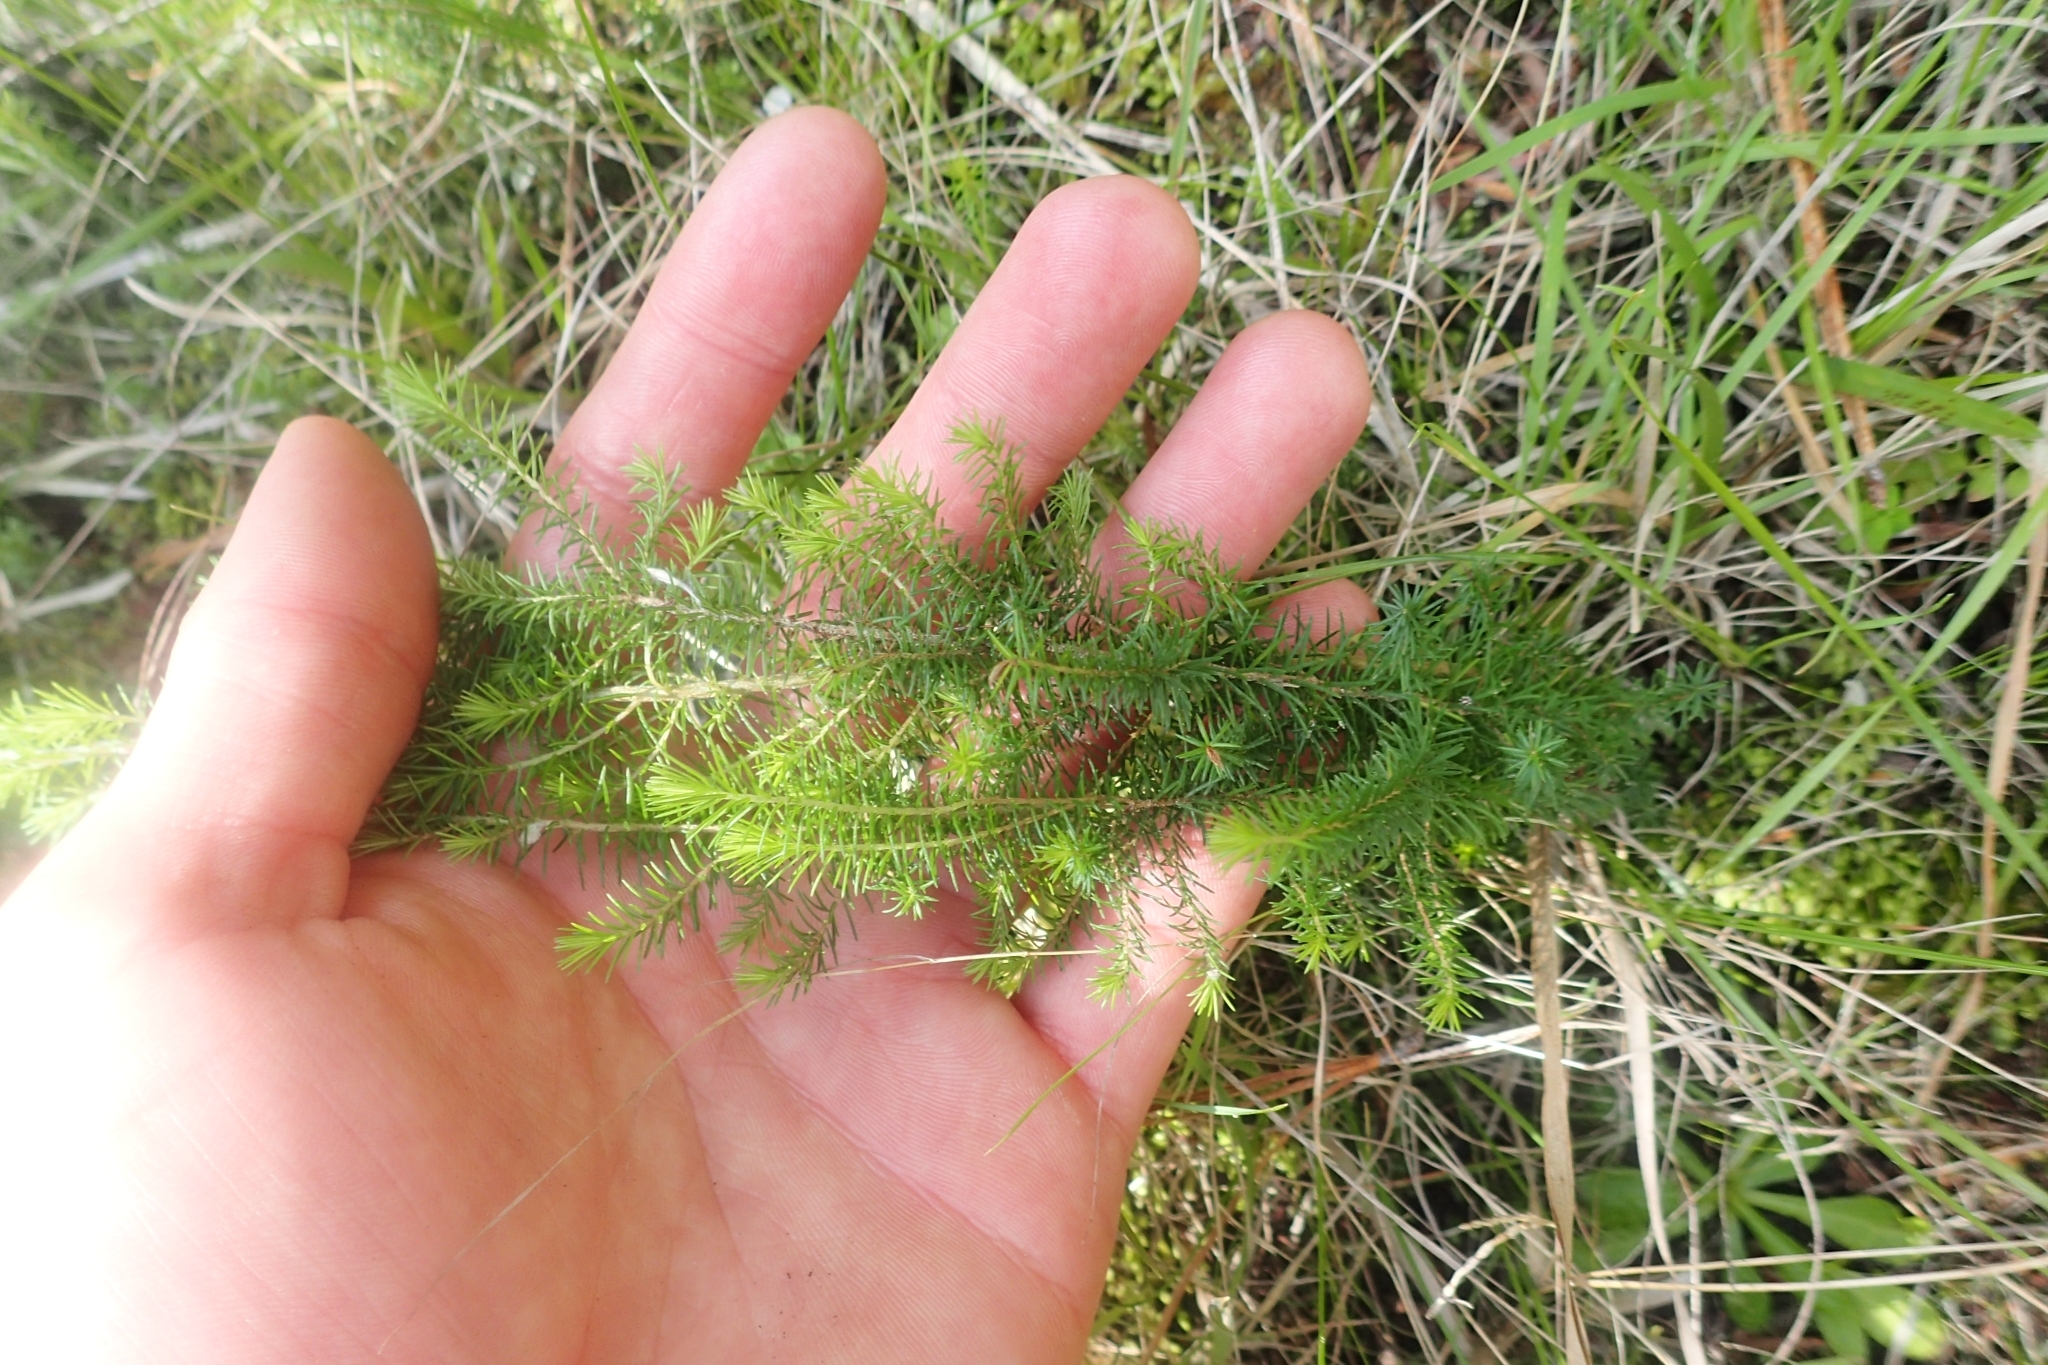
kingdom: Plantae
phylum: Tracheophyta
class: Magnoliopsida
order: Ericales
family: Ericaceae
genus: Erica
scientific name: Erica lusitanica
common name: Spanish heath
